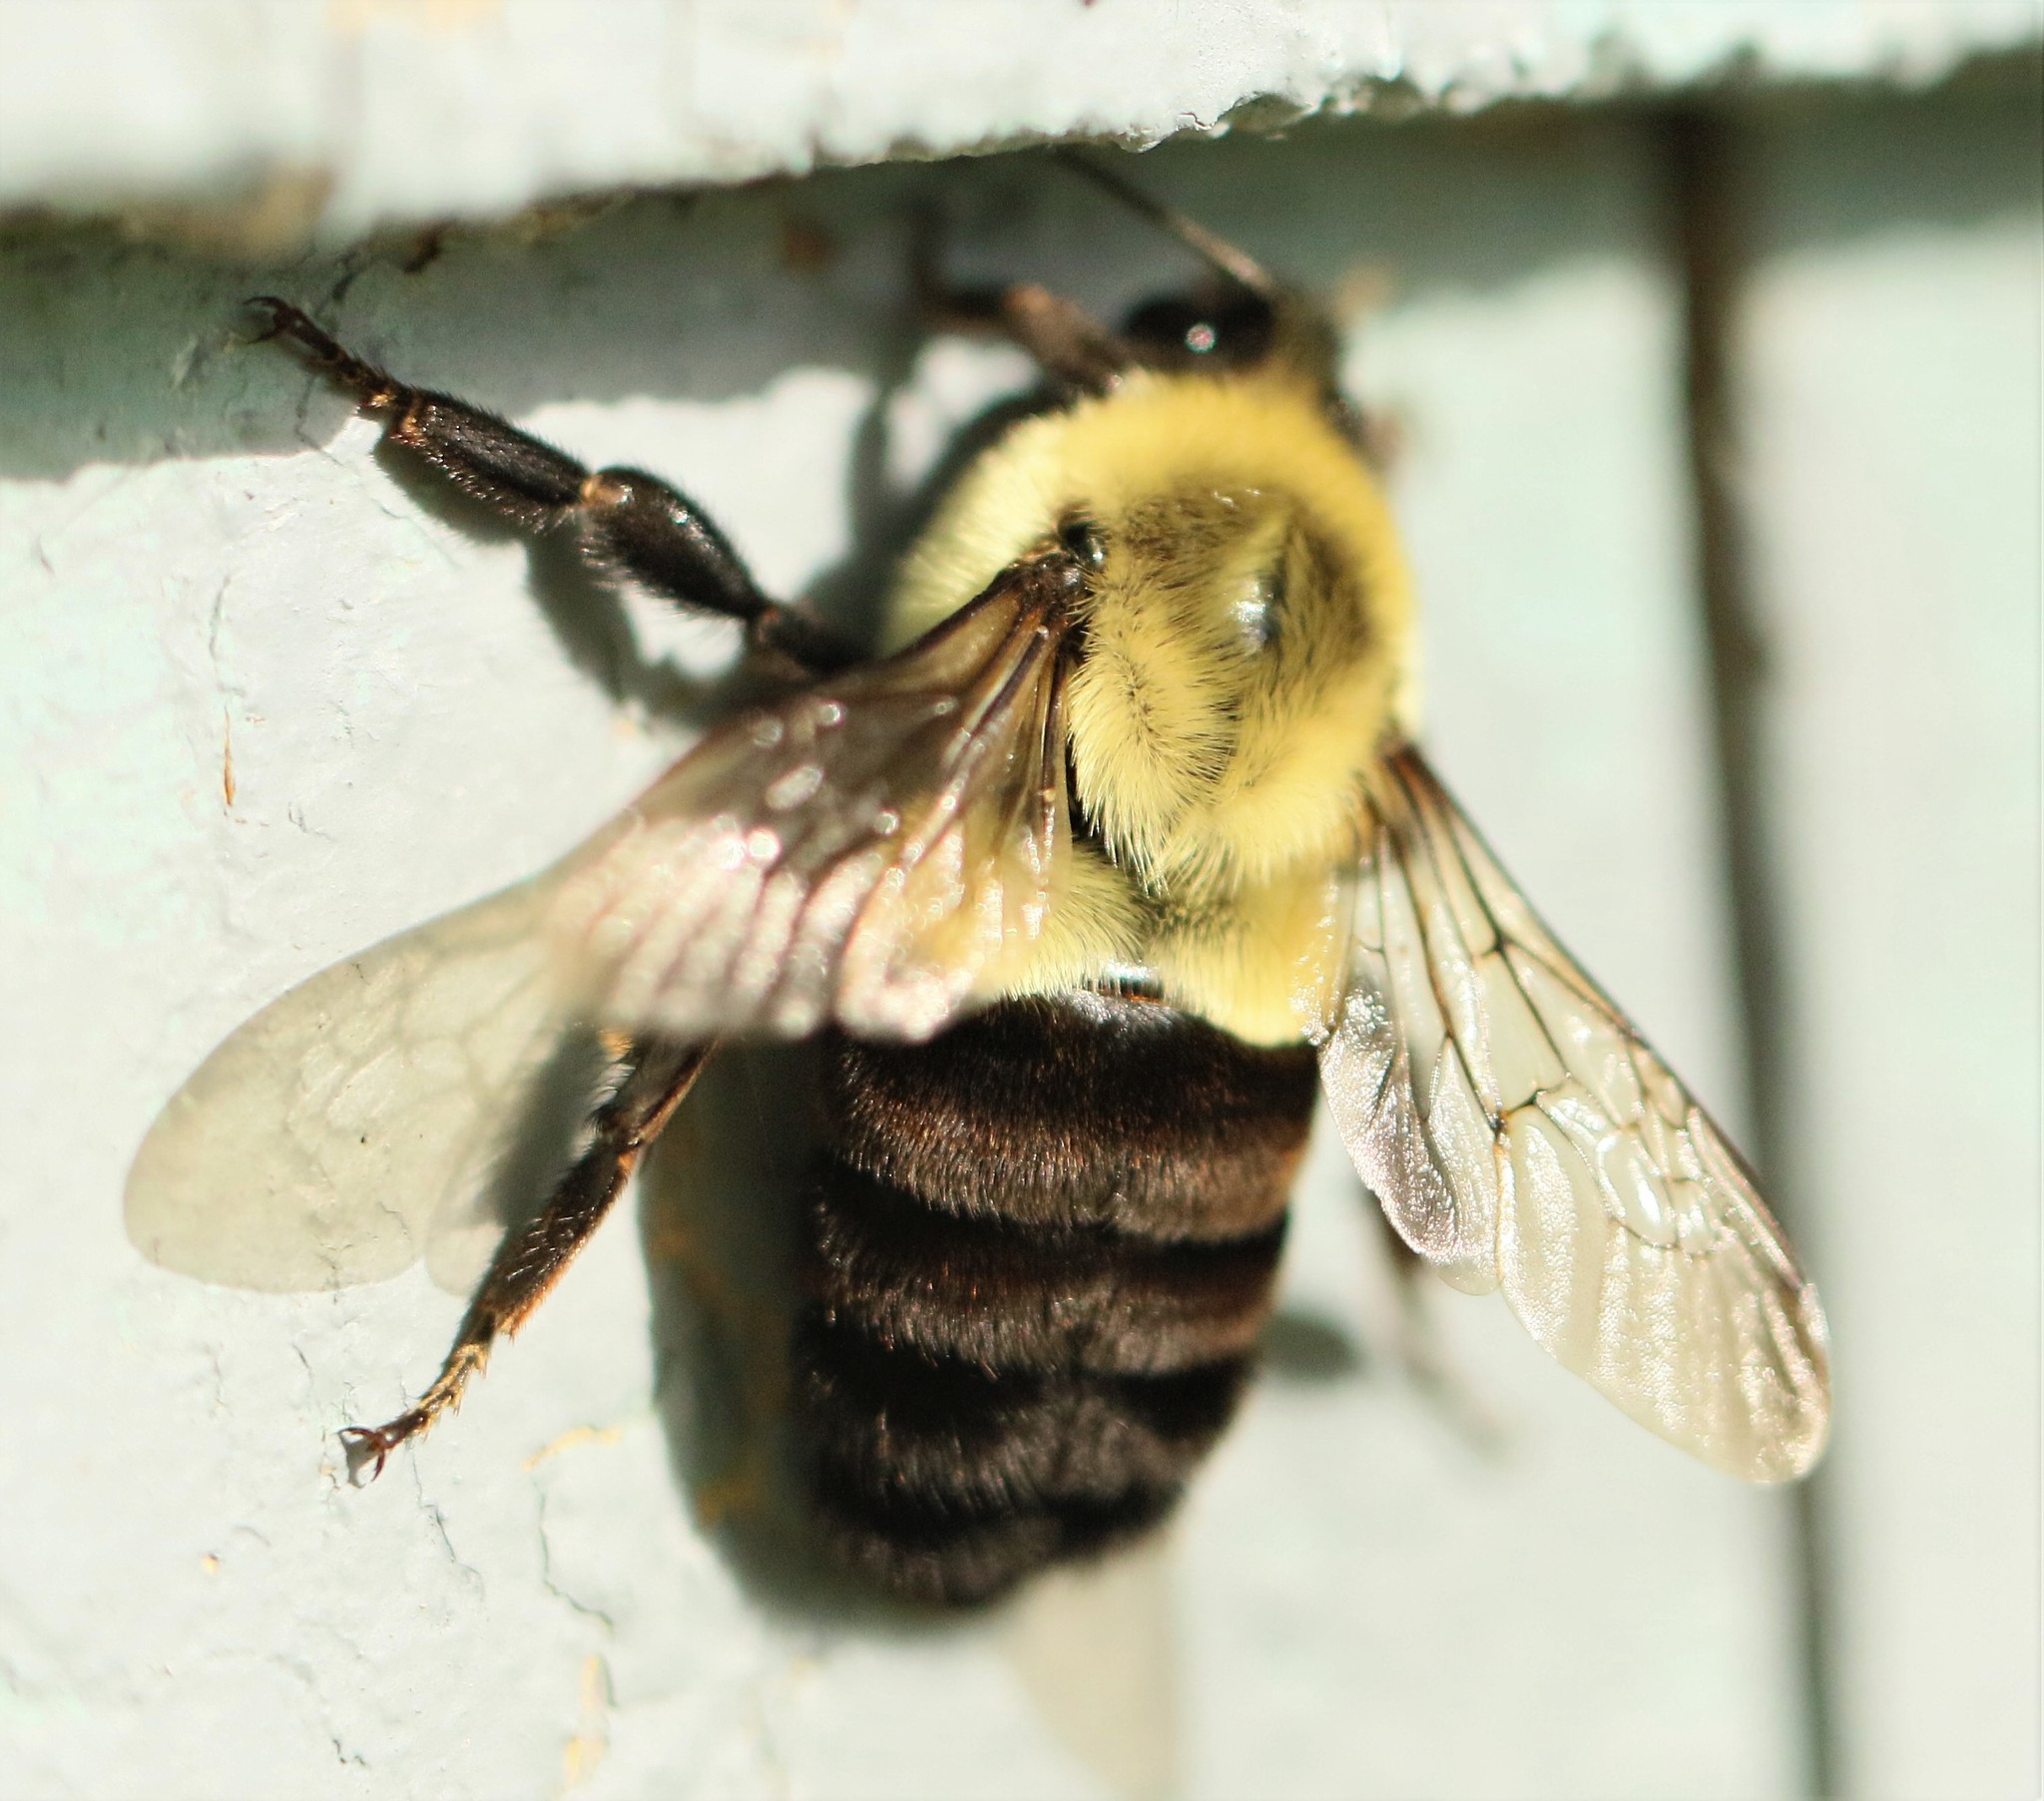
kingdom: Animalia
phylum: Arthropoda
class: Insecta
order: Hymenoptera
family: Apidae
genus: Bombus
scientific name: Bombus impatiens
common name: Common eastern bumble bee
